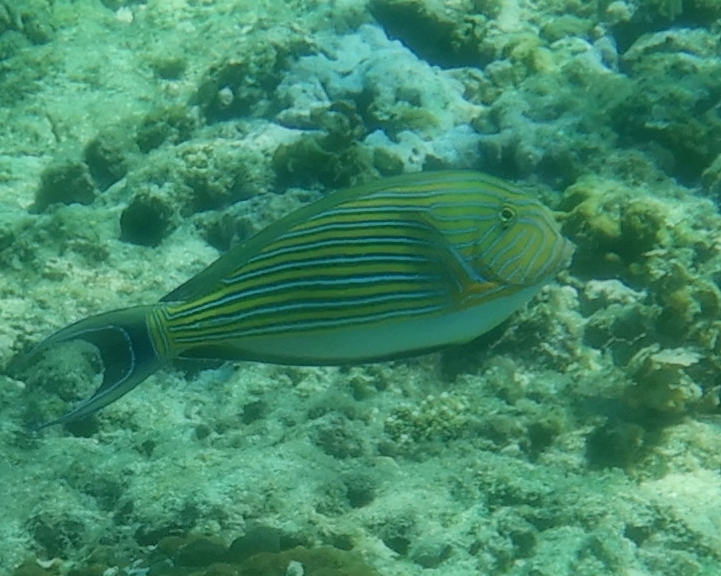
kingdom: Animalia
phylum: Chordata
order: Perciformes
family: Acanthuridae
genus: Acanthurus
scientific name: Acanthurus lineatus
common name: Striped surgeonfish
